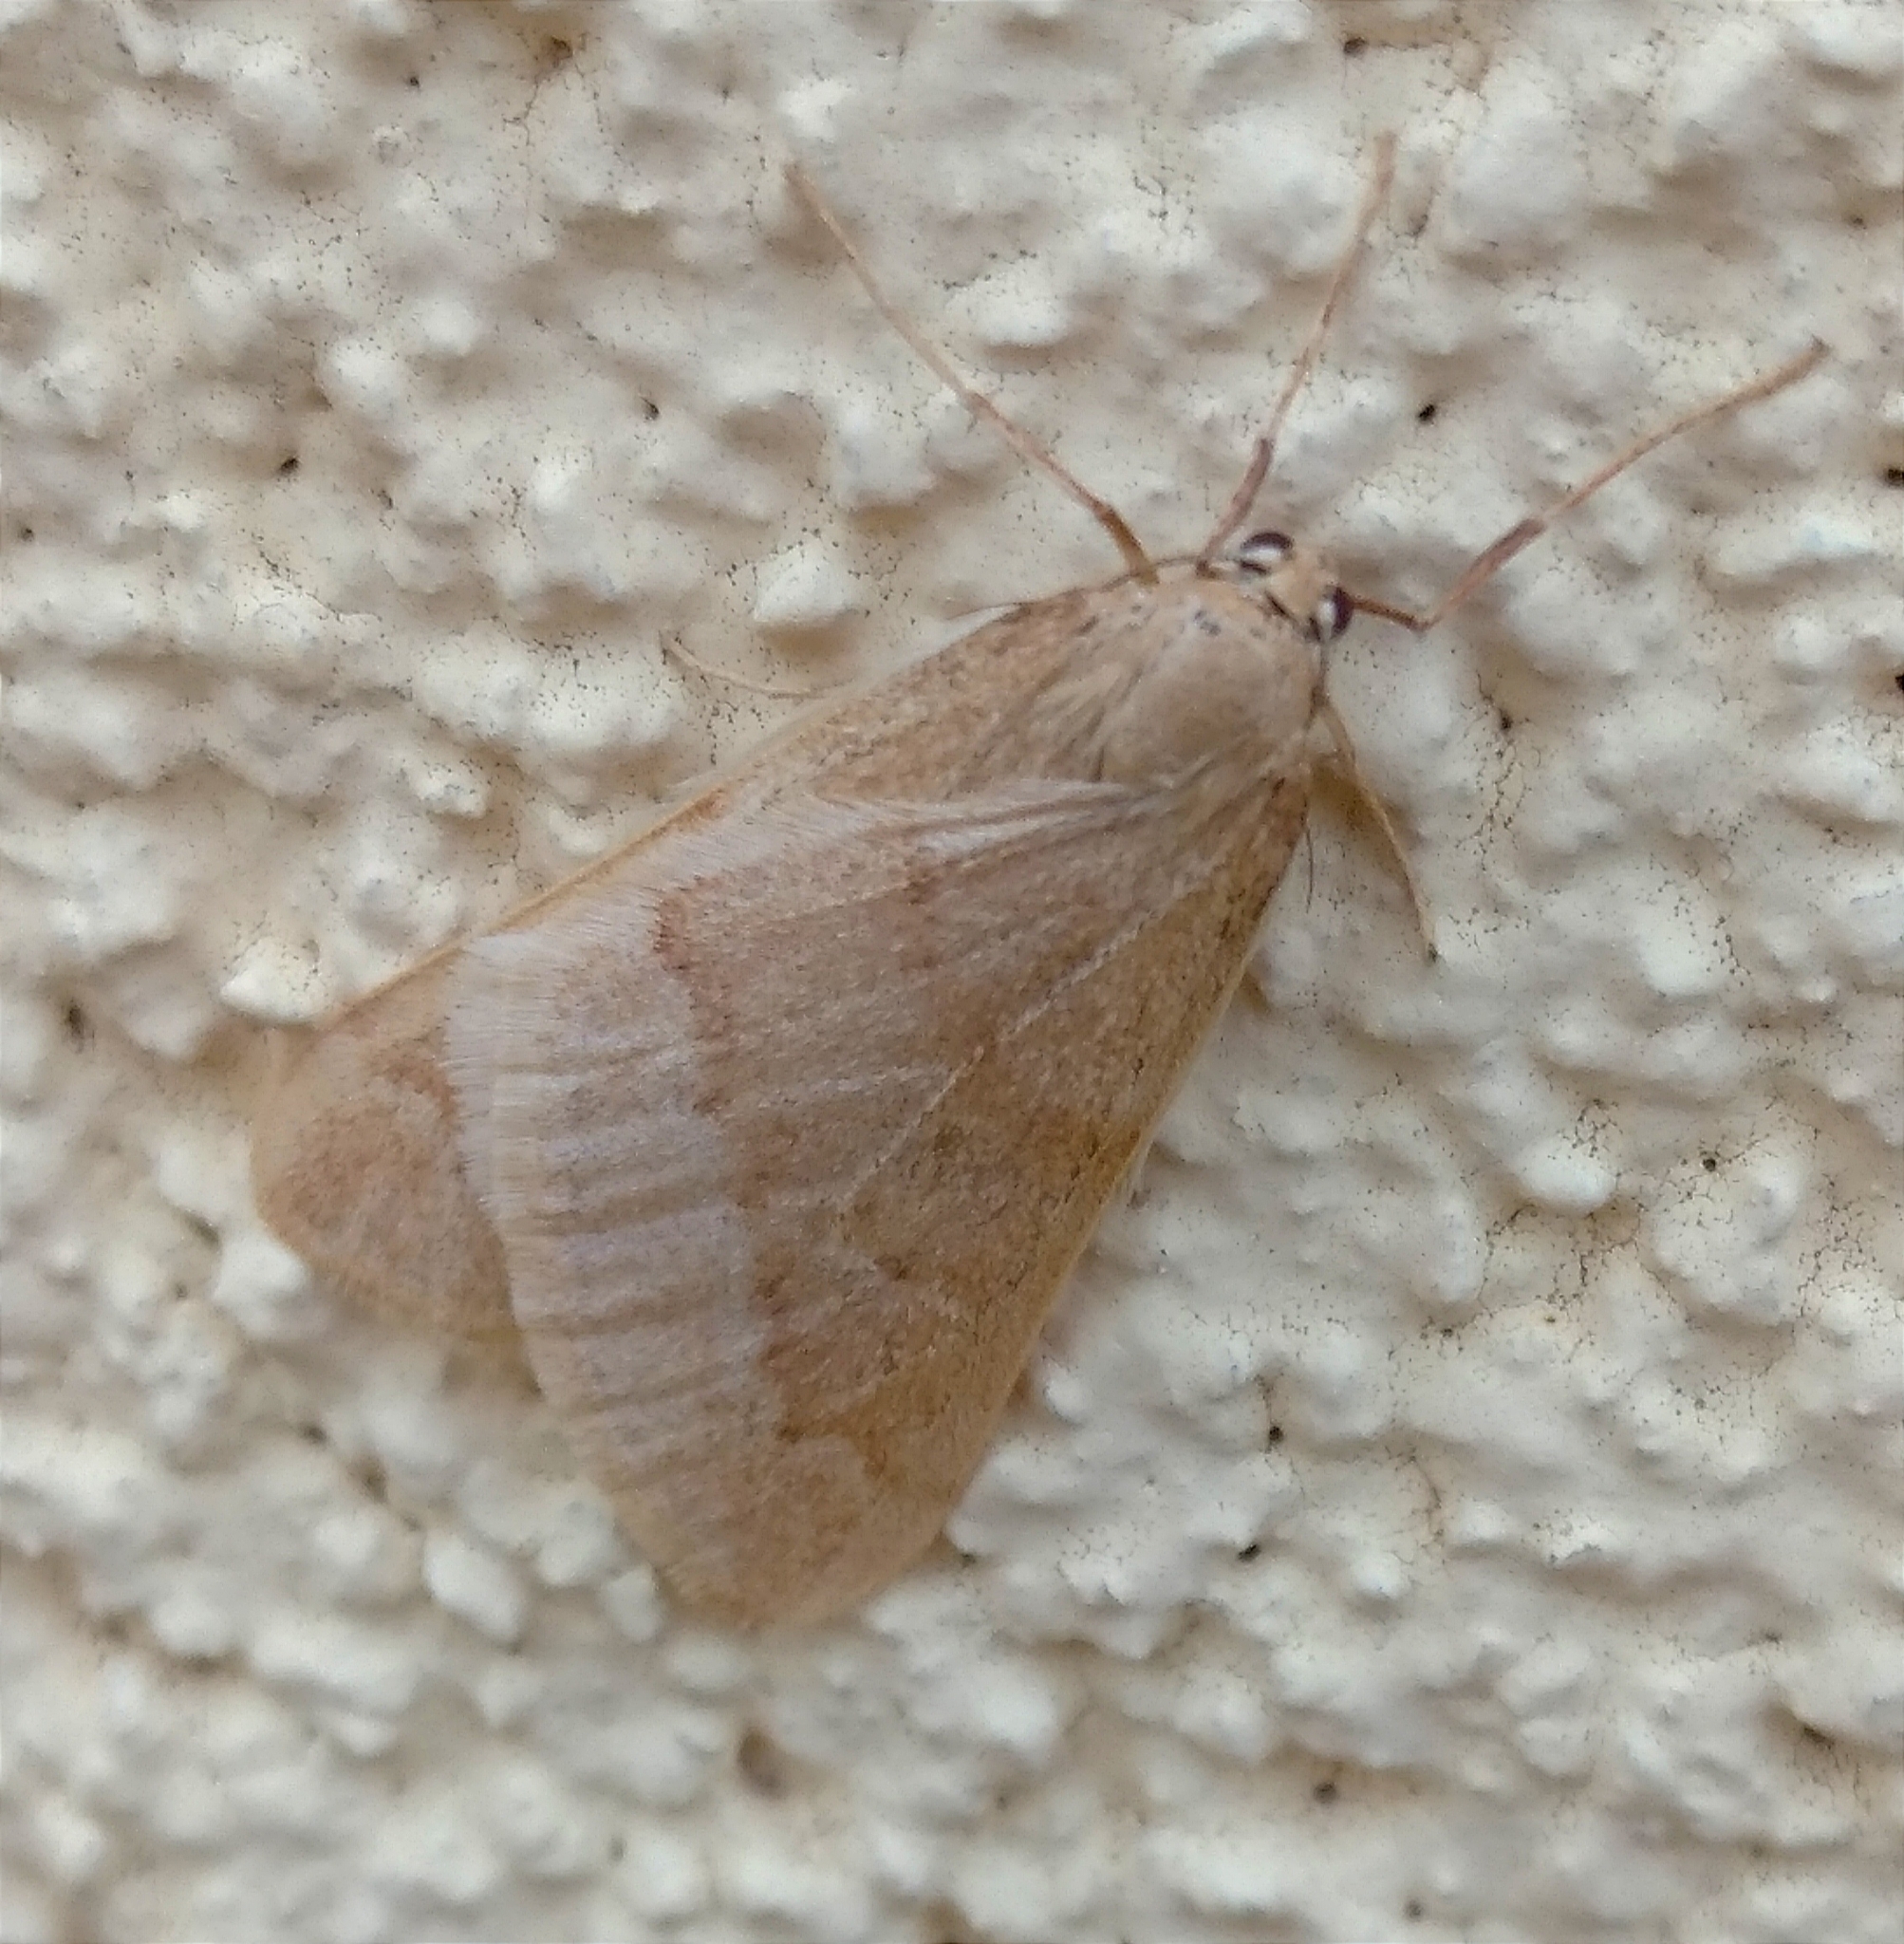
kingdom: Animalia
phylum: Arthropoda
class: Insecta
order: Lepidoptera
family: Geometridae
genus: Alsophila
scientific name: Alsophila aceraria
